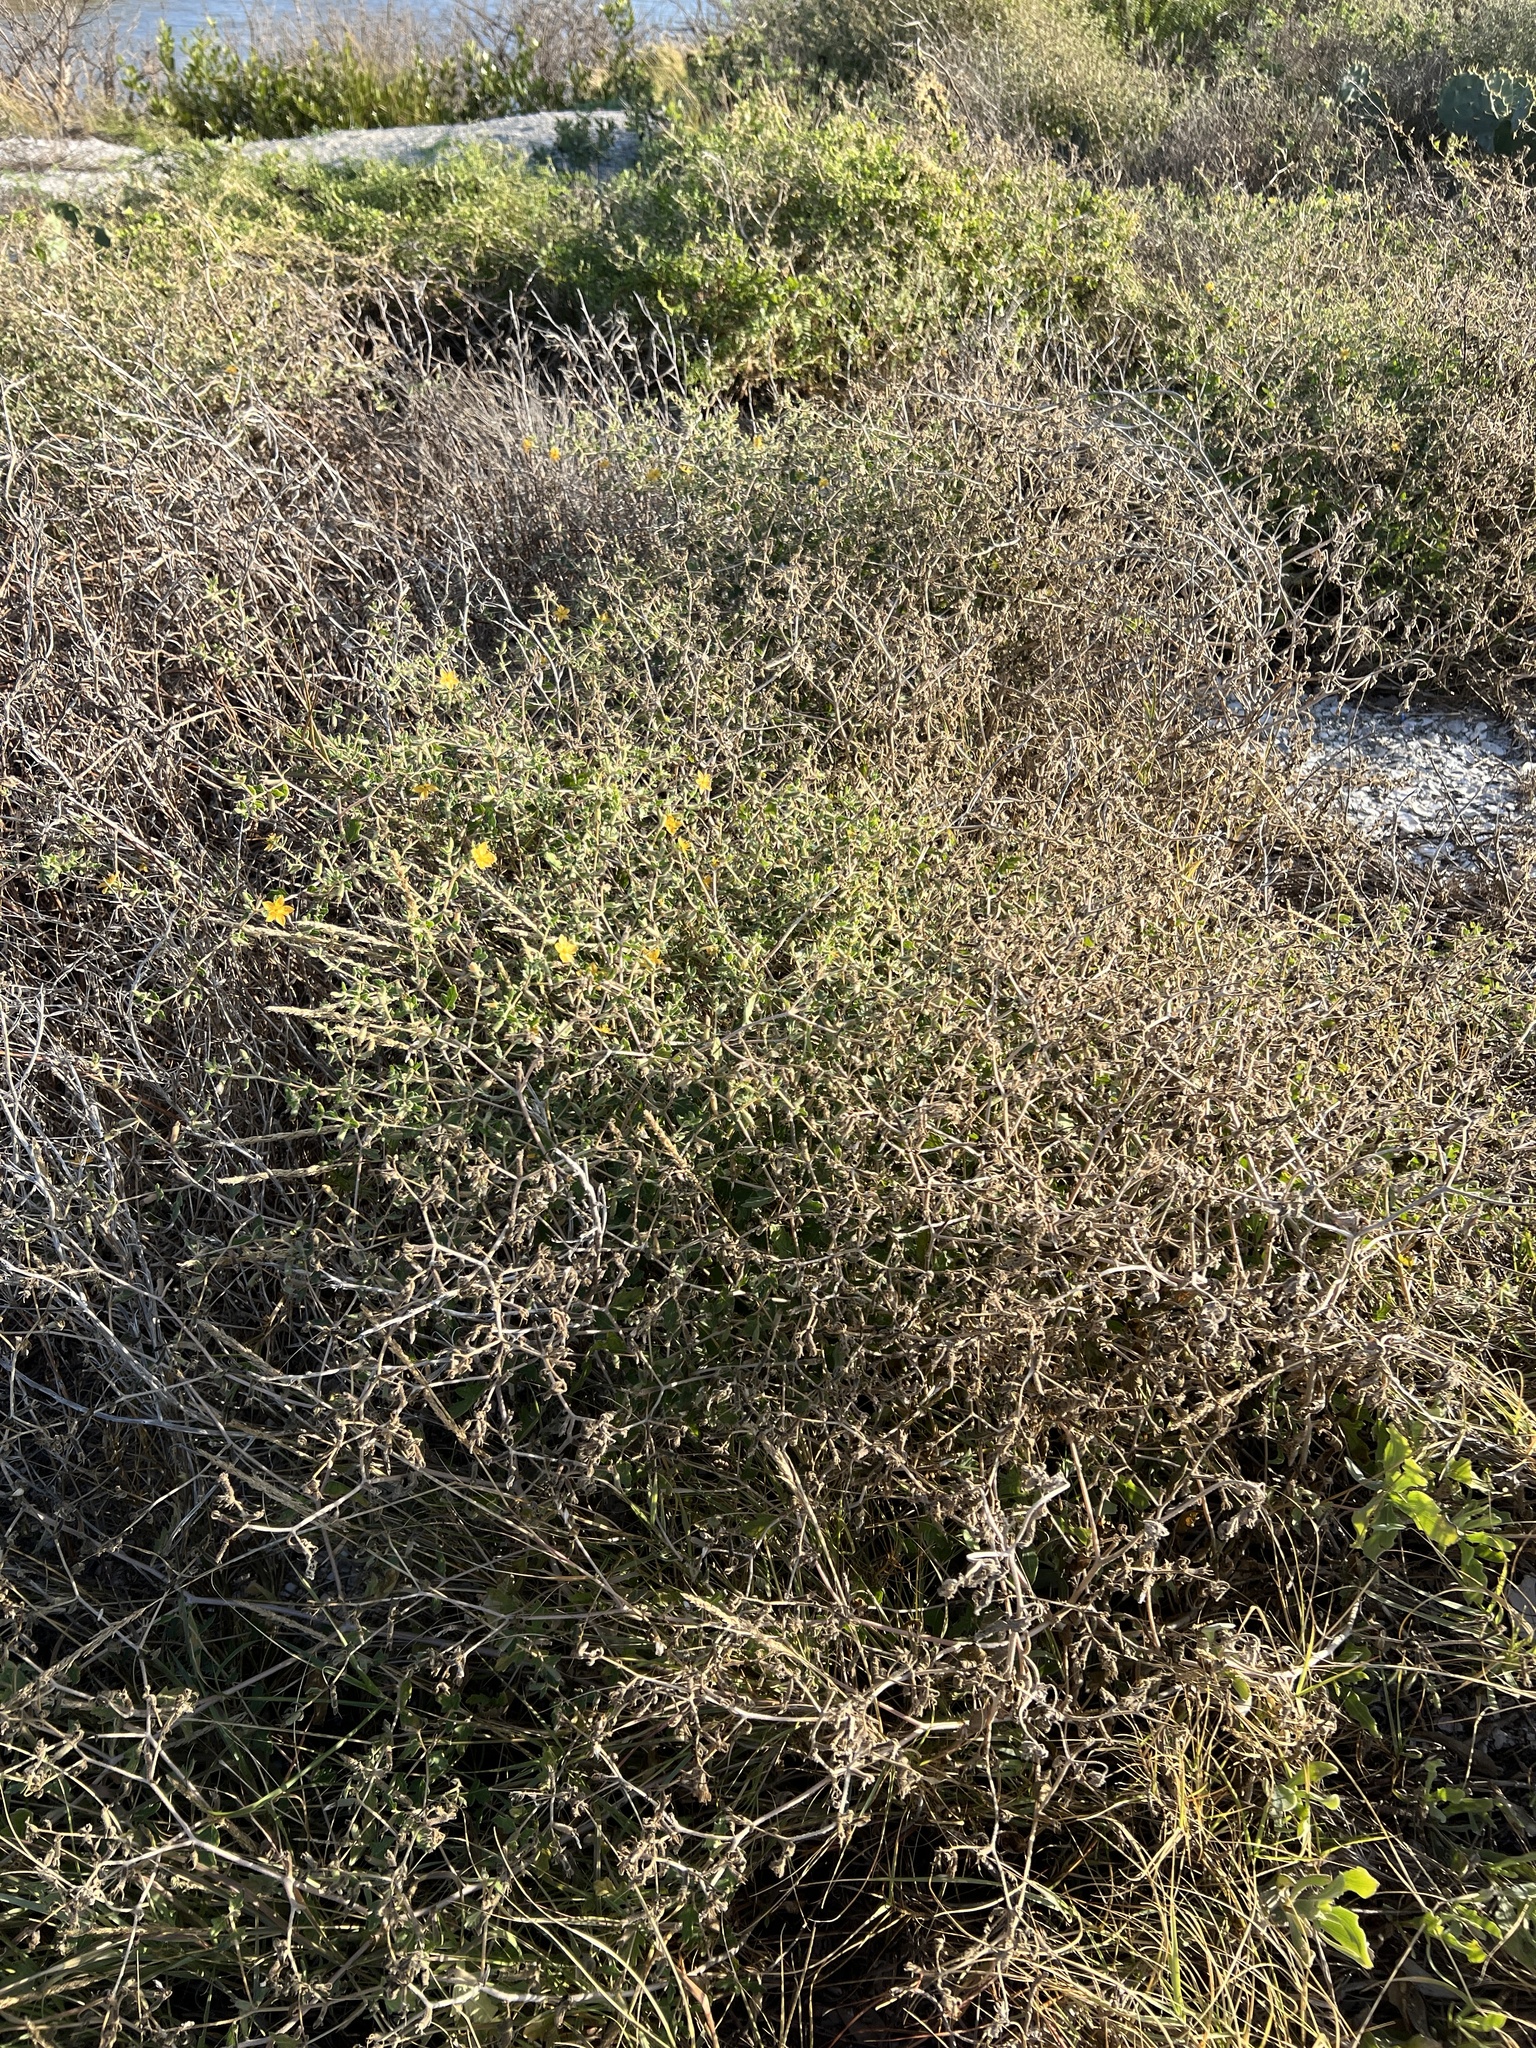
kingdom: Plantae
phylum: Tracheophyta
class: Magnoliopsida
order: Cornales
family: Loasaceae
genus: Mentzelia
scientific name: Mentzelia oligosperma
